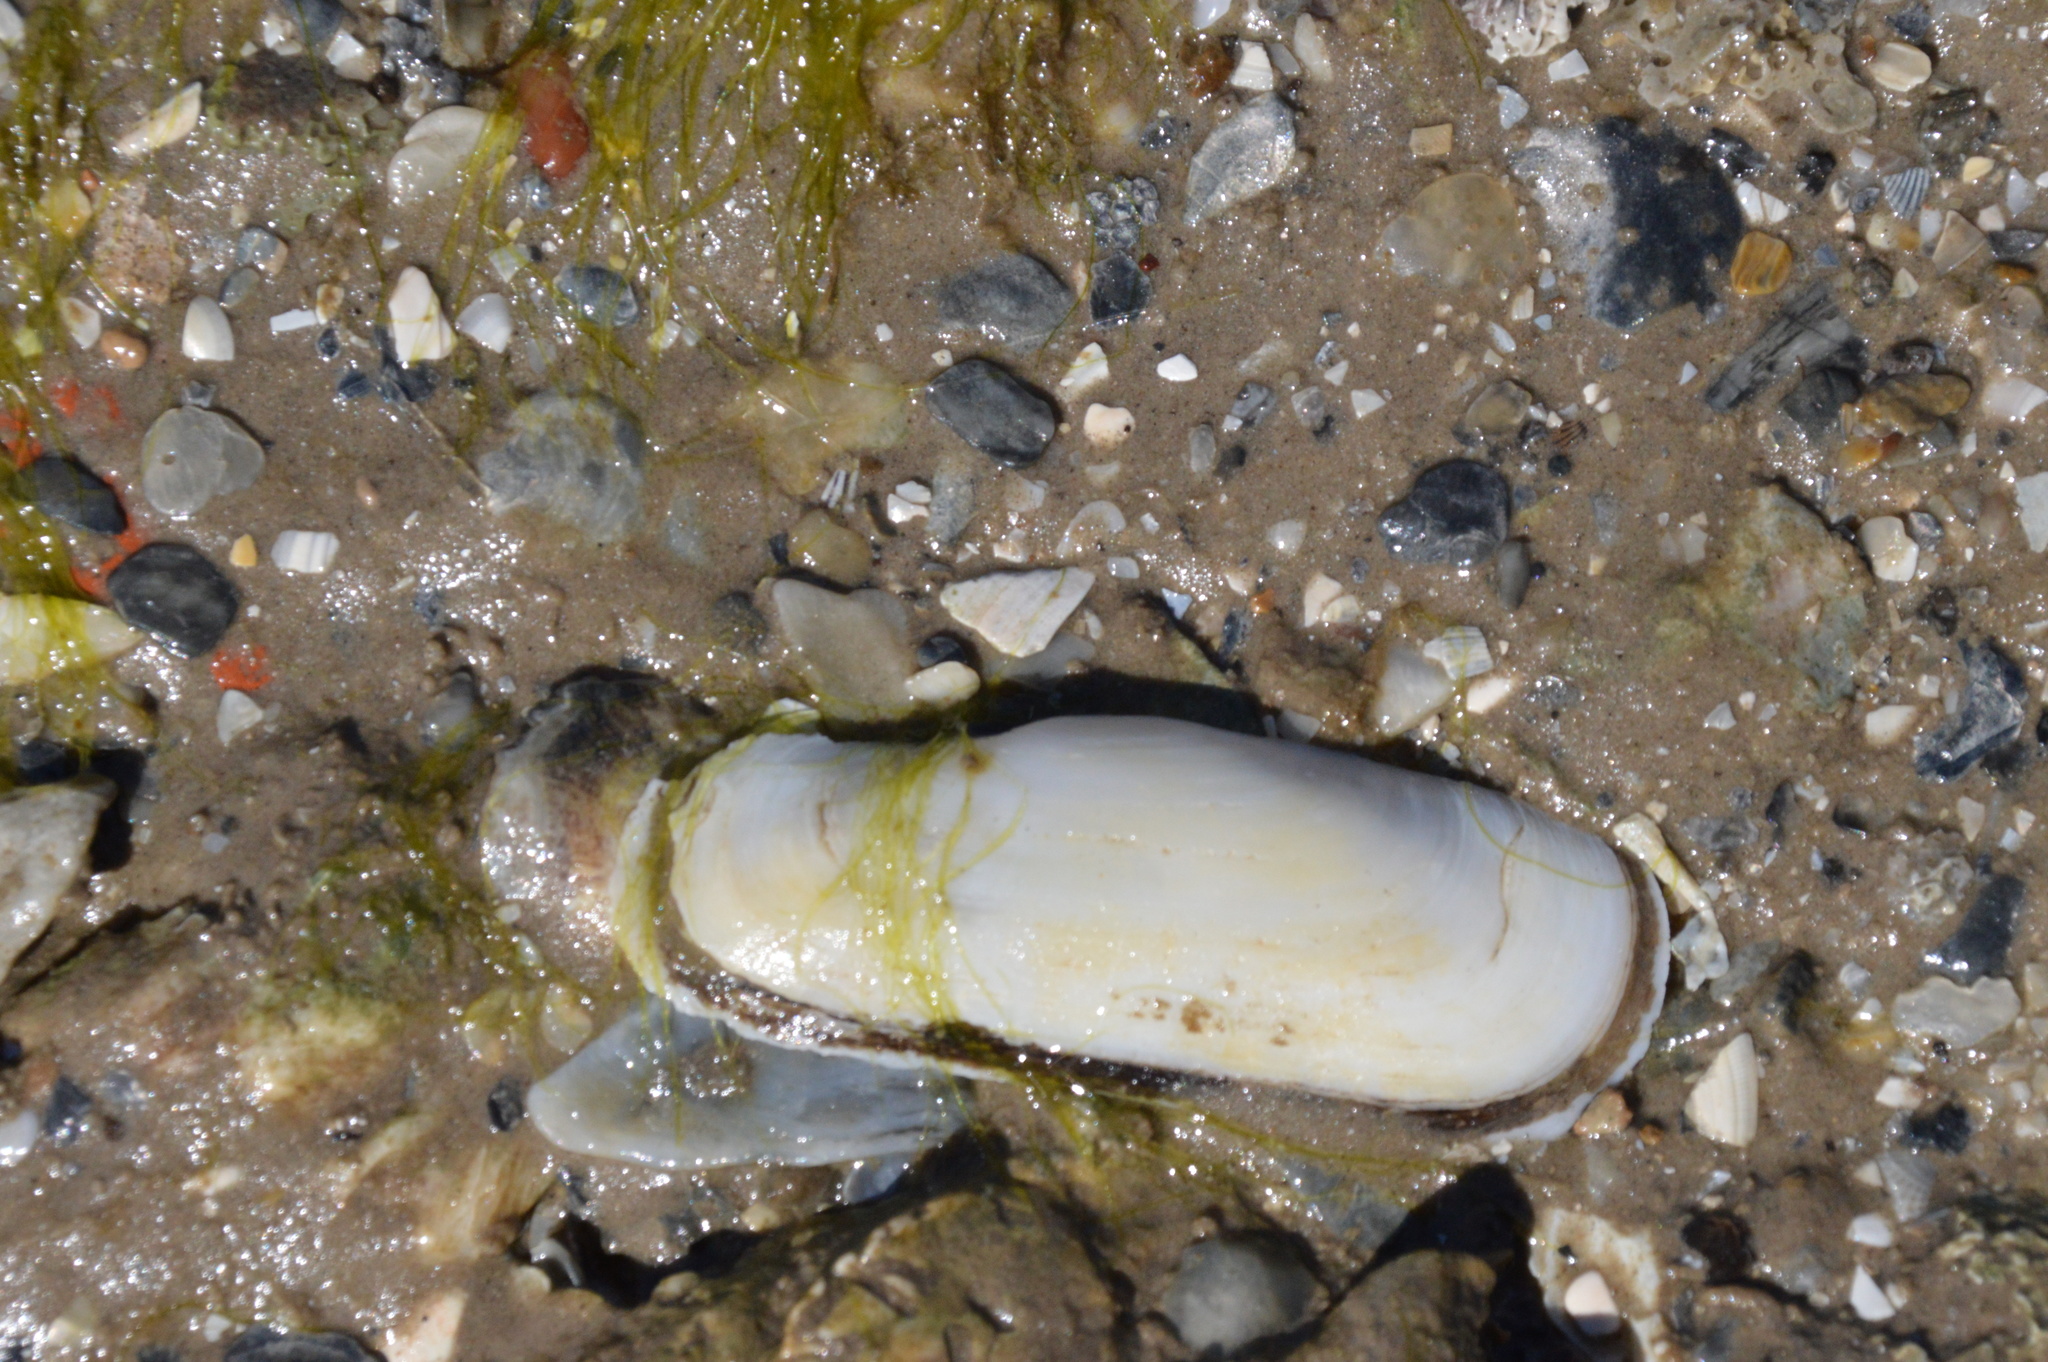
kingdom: Animalia
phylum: Mollusca
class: Bivalvia
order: Cardiida
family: Solecurtidae
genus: Tagelus
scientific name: Tagelus plebeius
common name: Stout tagelus
